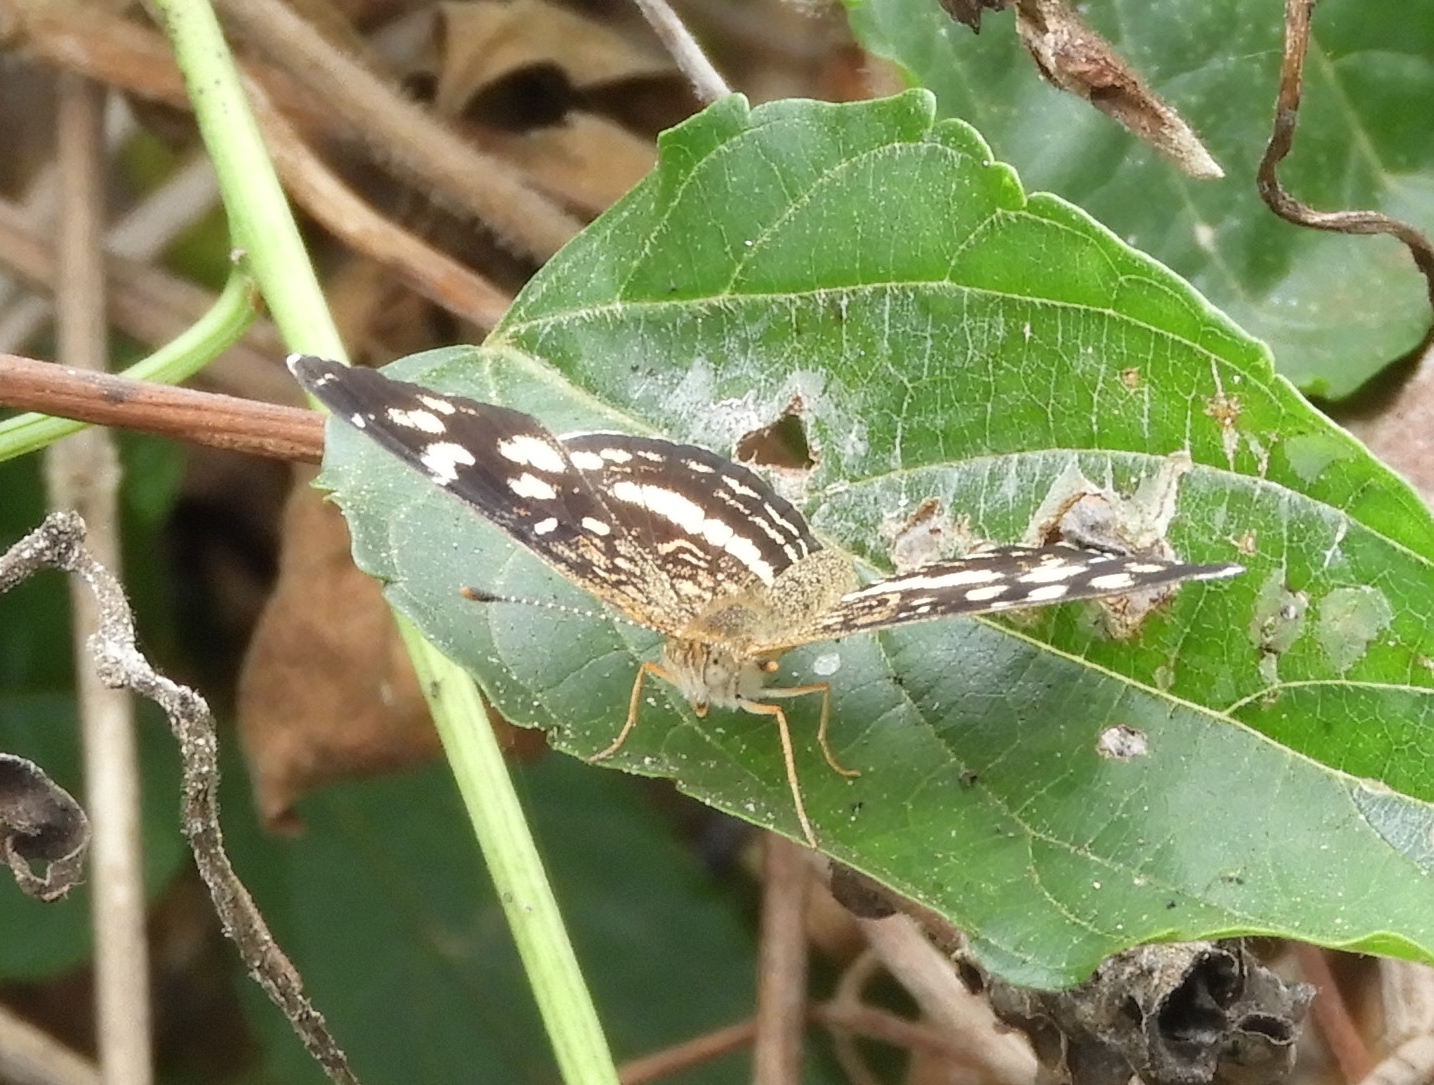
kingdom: Animalia
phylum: Arthropoda
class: Insecta
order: Lepidoptera
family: Nymphalidae
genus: Anthanassa
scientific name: Anthanassa tulcis
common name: Pale-banded crescent
